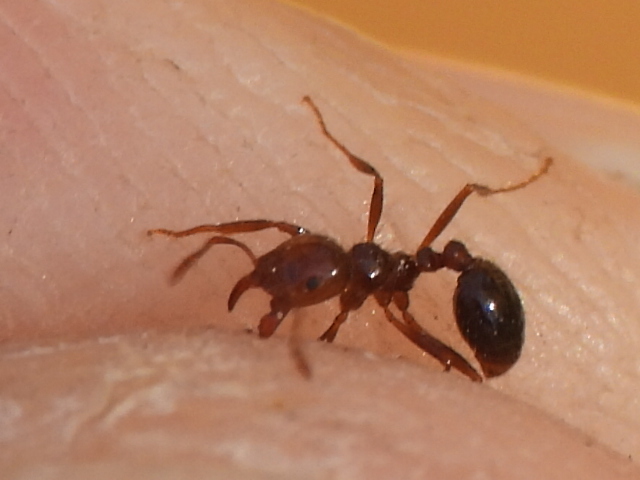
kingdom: Animalia
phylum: Arthropoda
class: Insecta
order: Hymenoptera
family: Formicidae
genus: Solenopsis
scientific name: Solenopsis invicta
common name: Red imported fire ant
